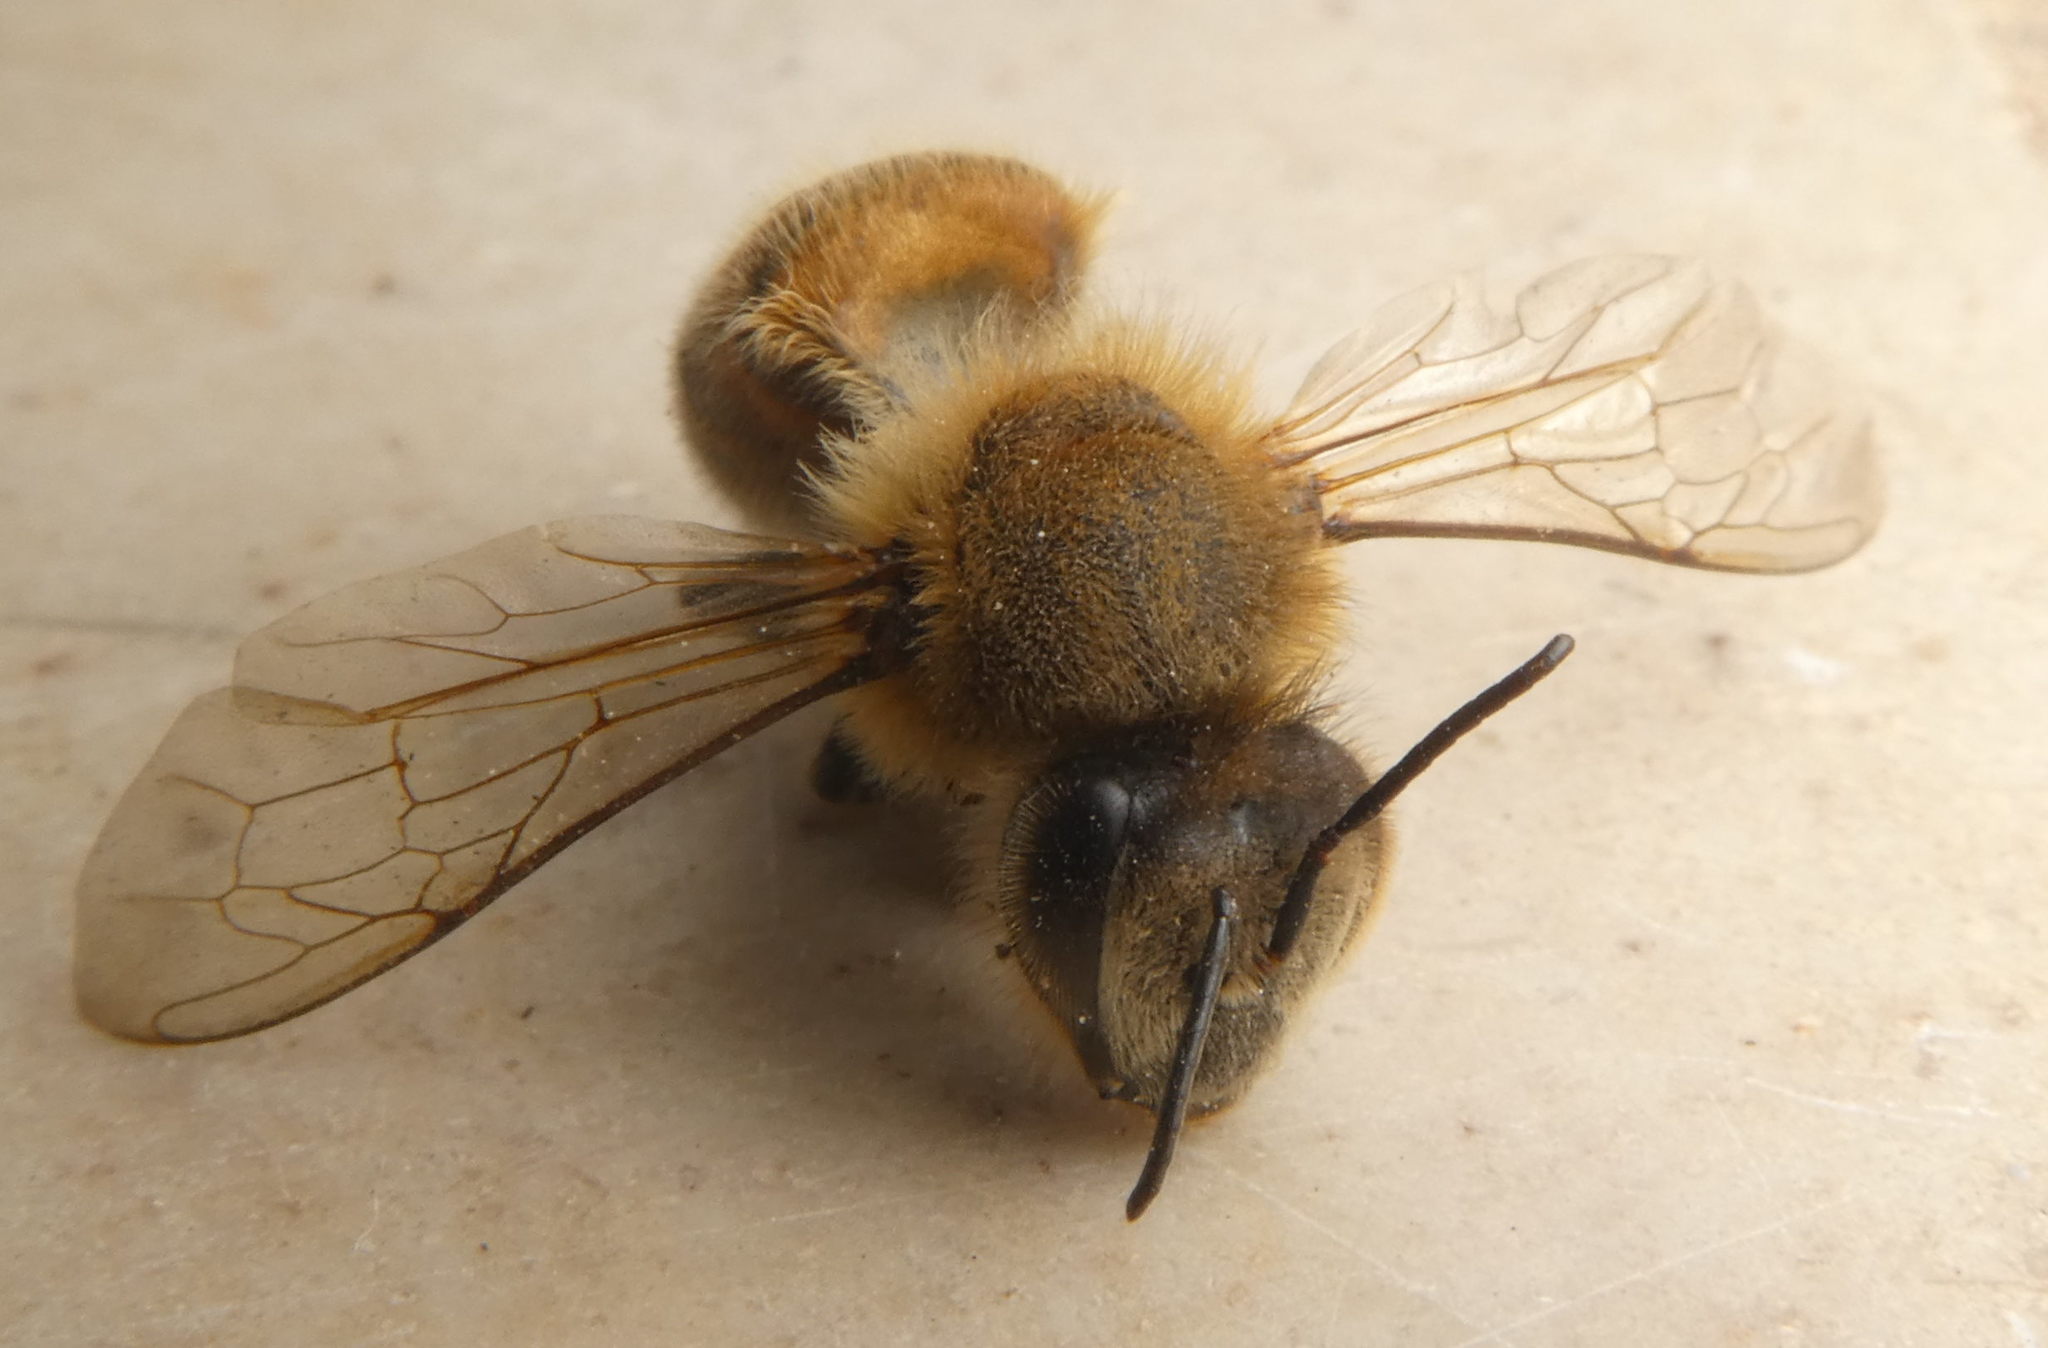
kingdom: Animalia
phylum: Arthropoda
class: Insecta
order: Hymenoptera
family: Apidae
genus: Apis
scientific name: Apis mellifera
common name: Honey bee
